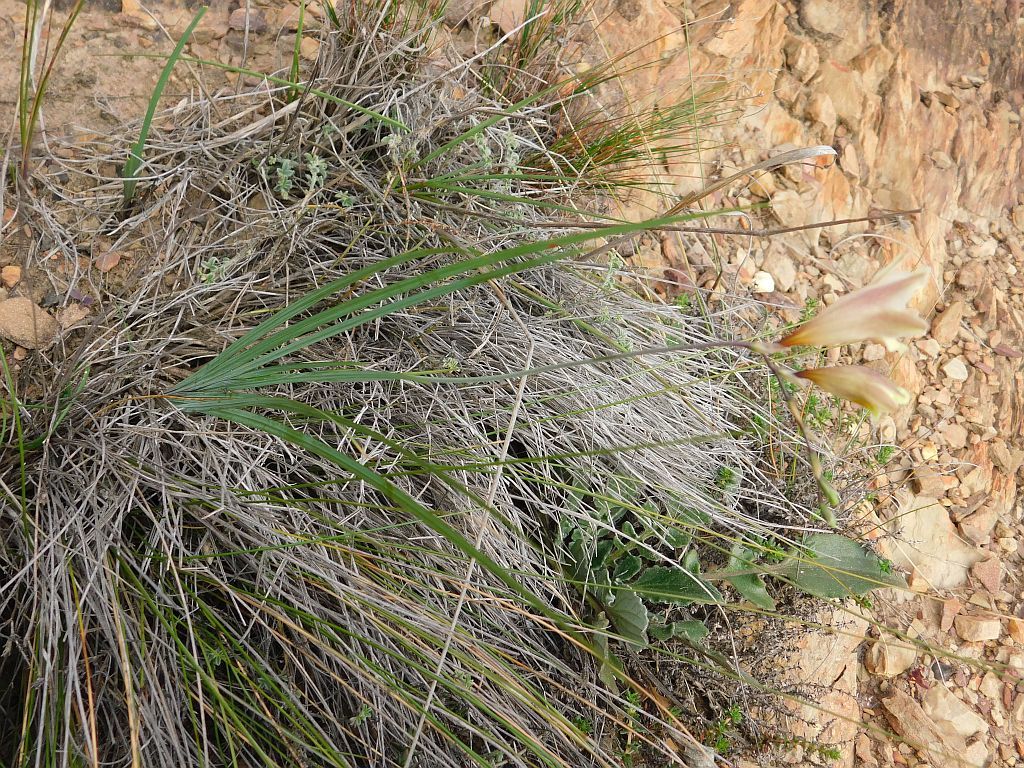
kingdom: Plantae
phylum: Tracheophyta
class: Liliopsida
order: Asparagales
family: Iridaceae
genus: Freesia
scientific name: Freesia refracta
